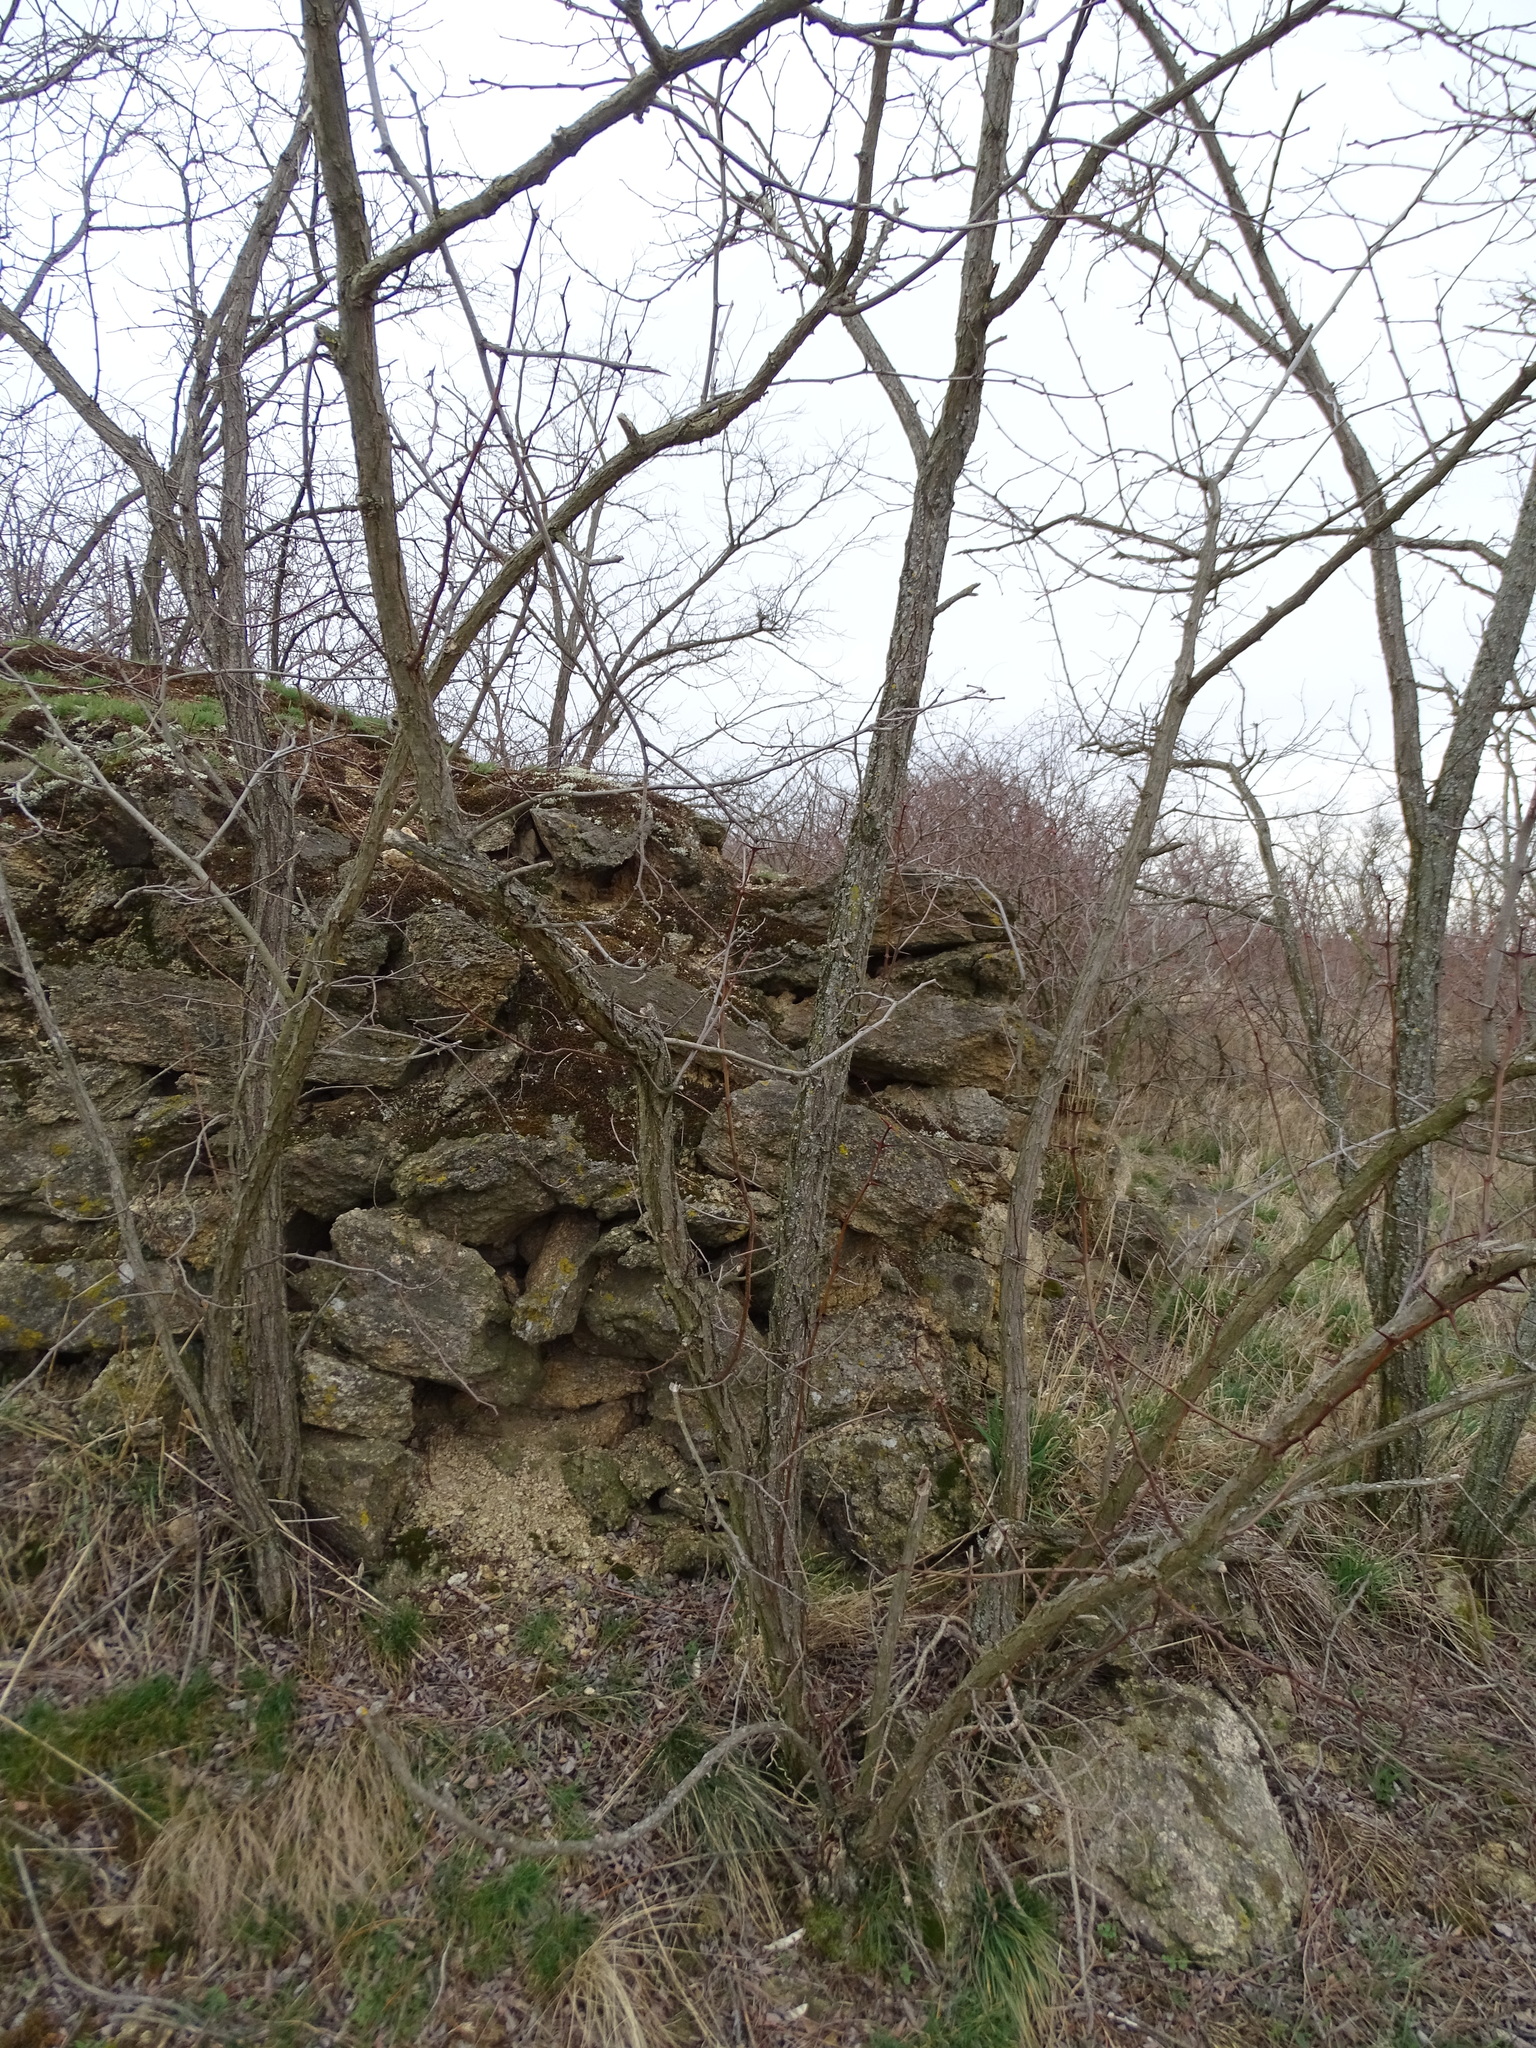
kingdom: Plantae
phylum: Tracheophyta
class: Magnoliopsida
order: Fabales
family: Fabaceae
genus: Robinia
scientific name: Robinia pseudoacacia
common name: Black locust
